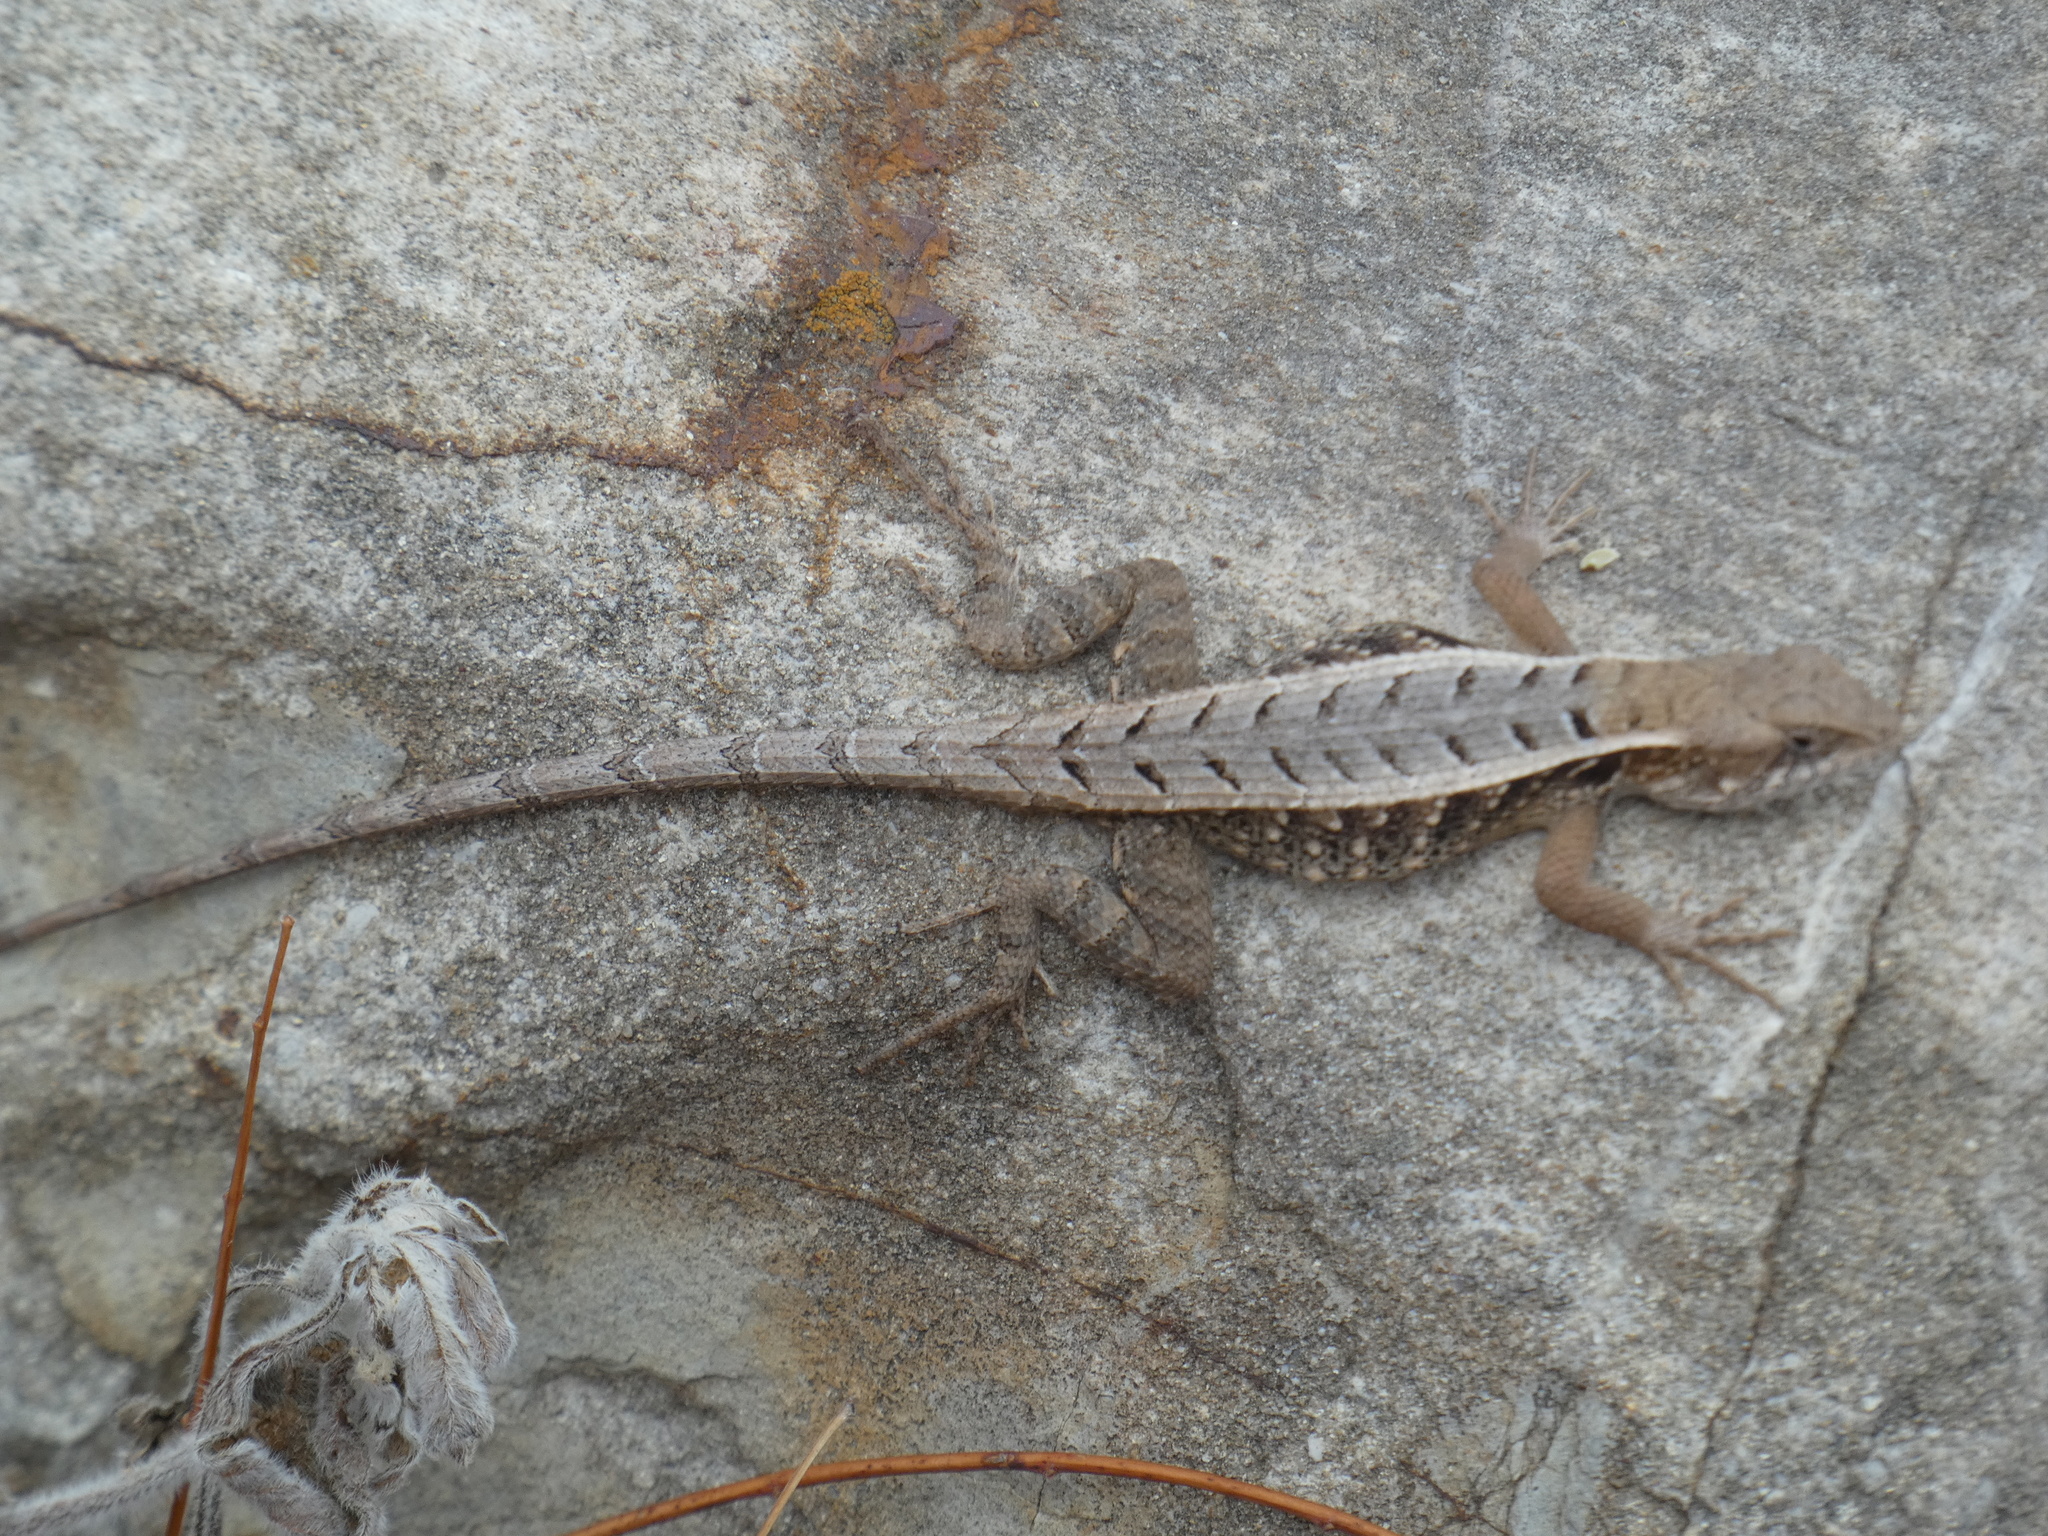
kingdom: Animalia
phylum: Chordata
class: Squamata
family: Phrynosomatidae
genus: Sceloporus
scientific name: Sceloporus siniferus
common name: Longtail spiny lizard
